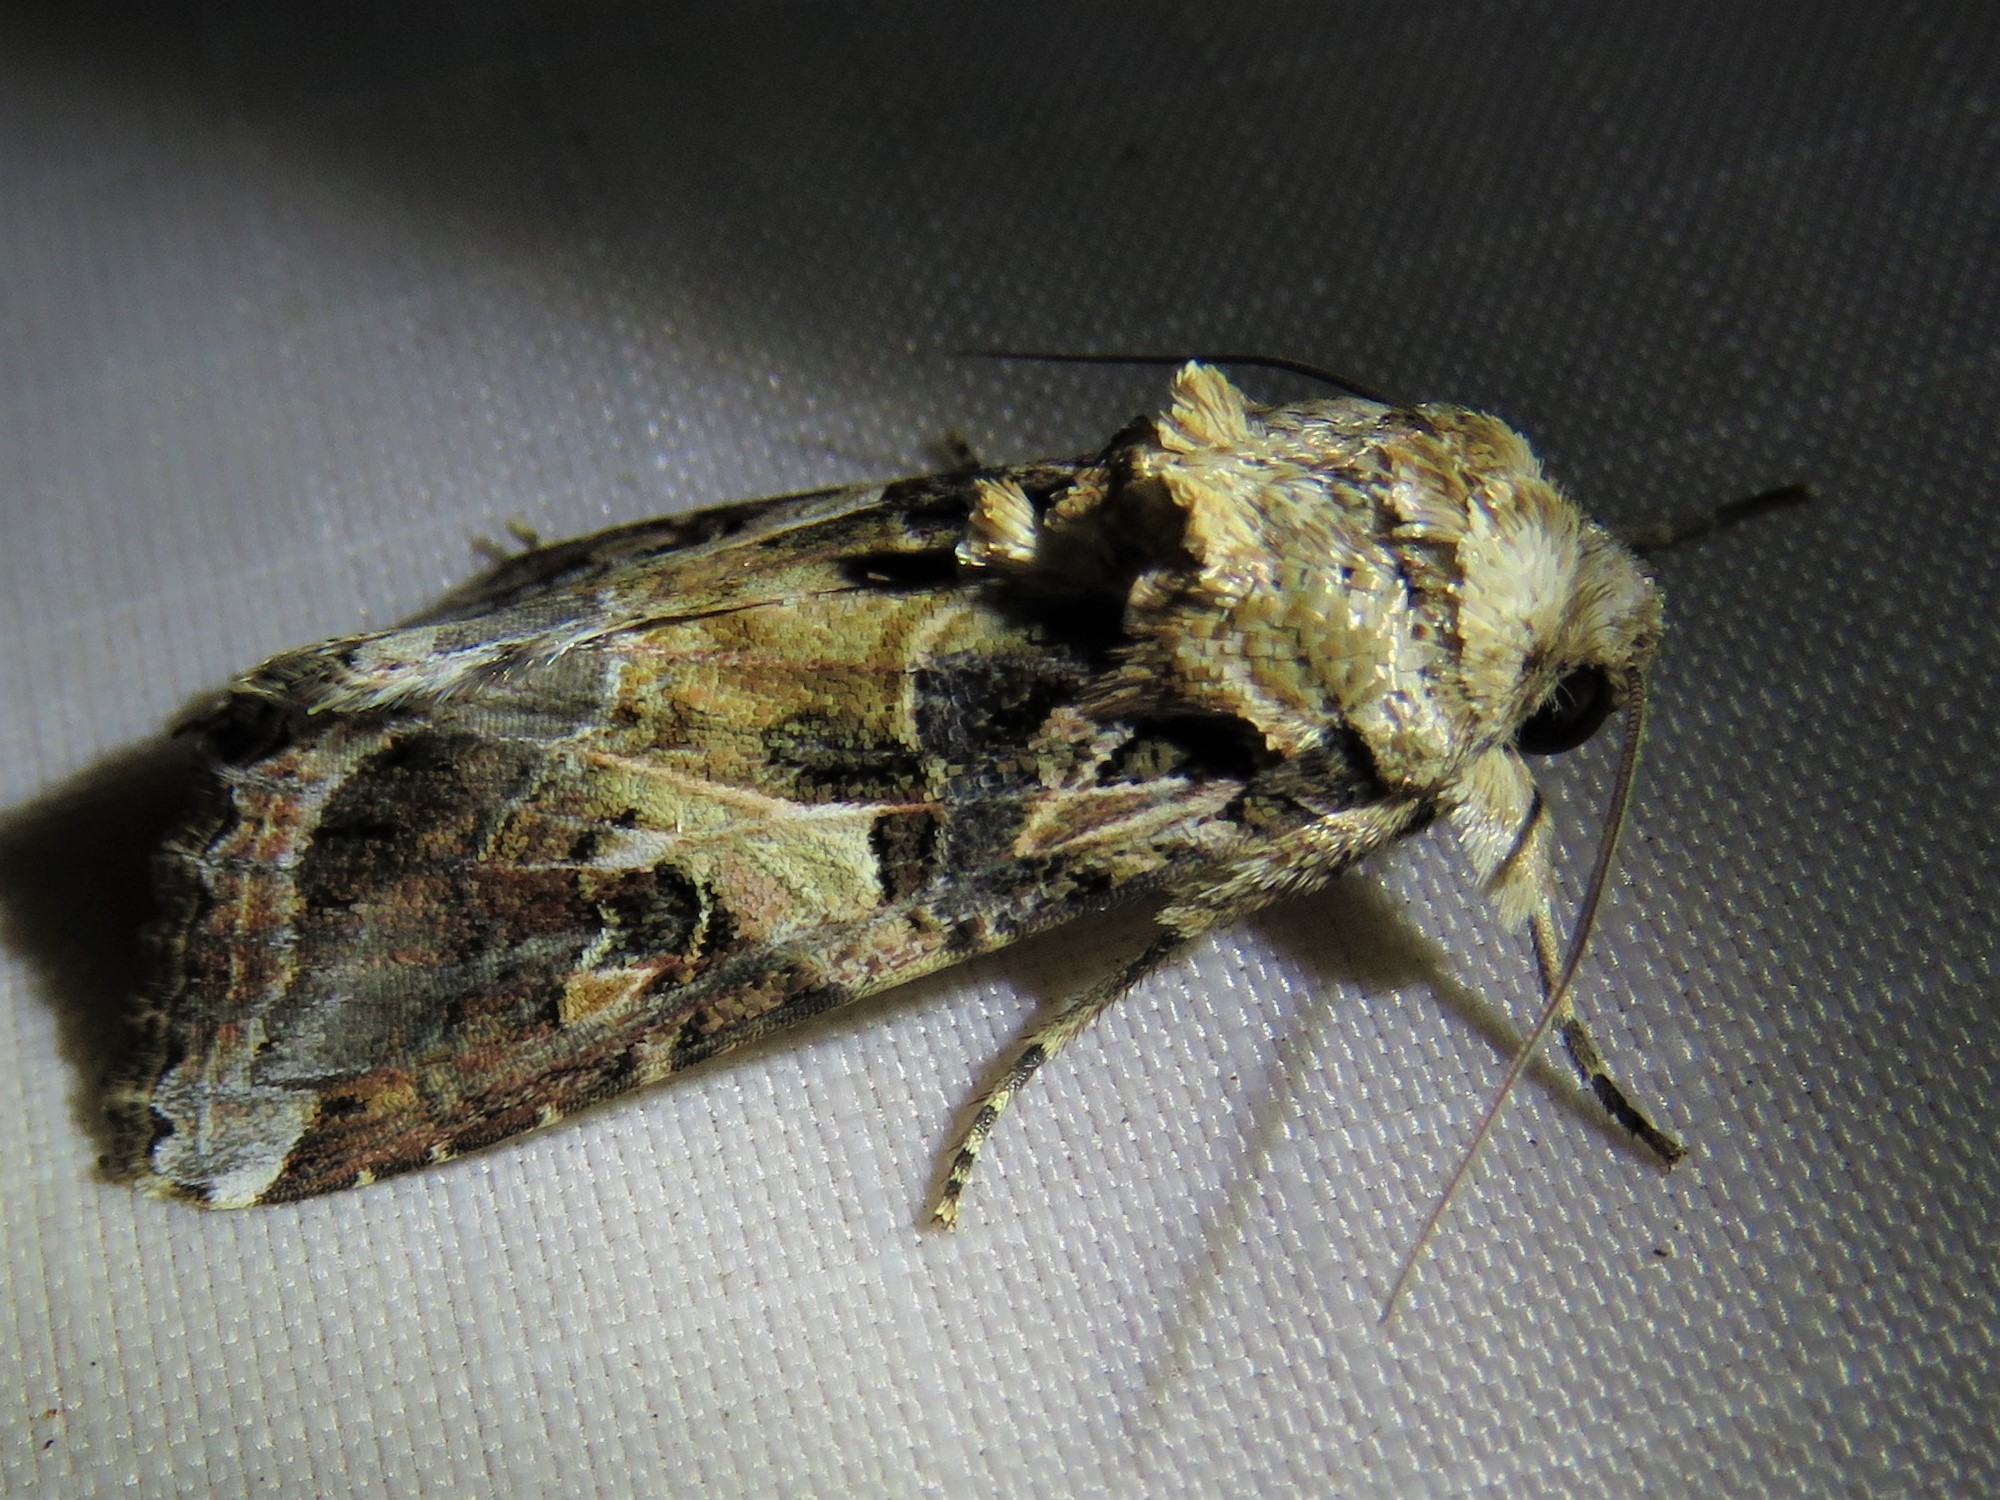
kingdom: Animalia
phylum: Arthropoda
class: Insecta
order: Lepidoptera
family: Noctuidae
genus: Spodoptera
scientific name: Spodoptera ornithogalli
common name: Yellow-striped armyworm
